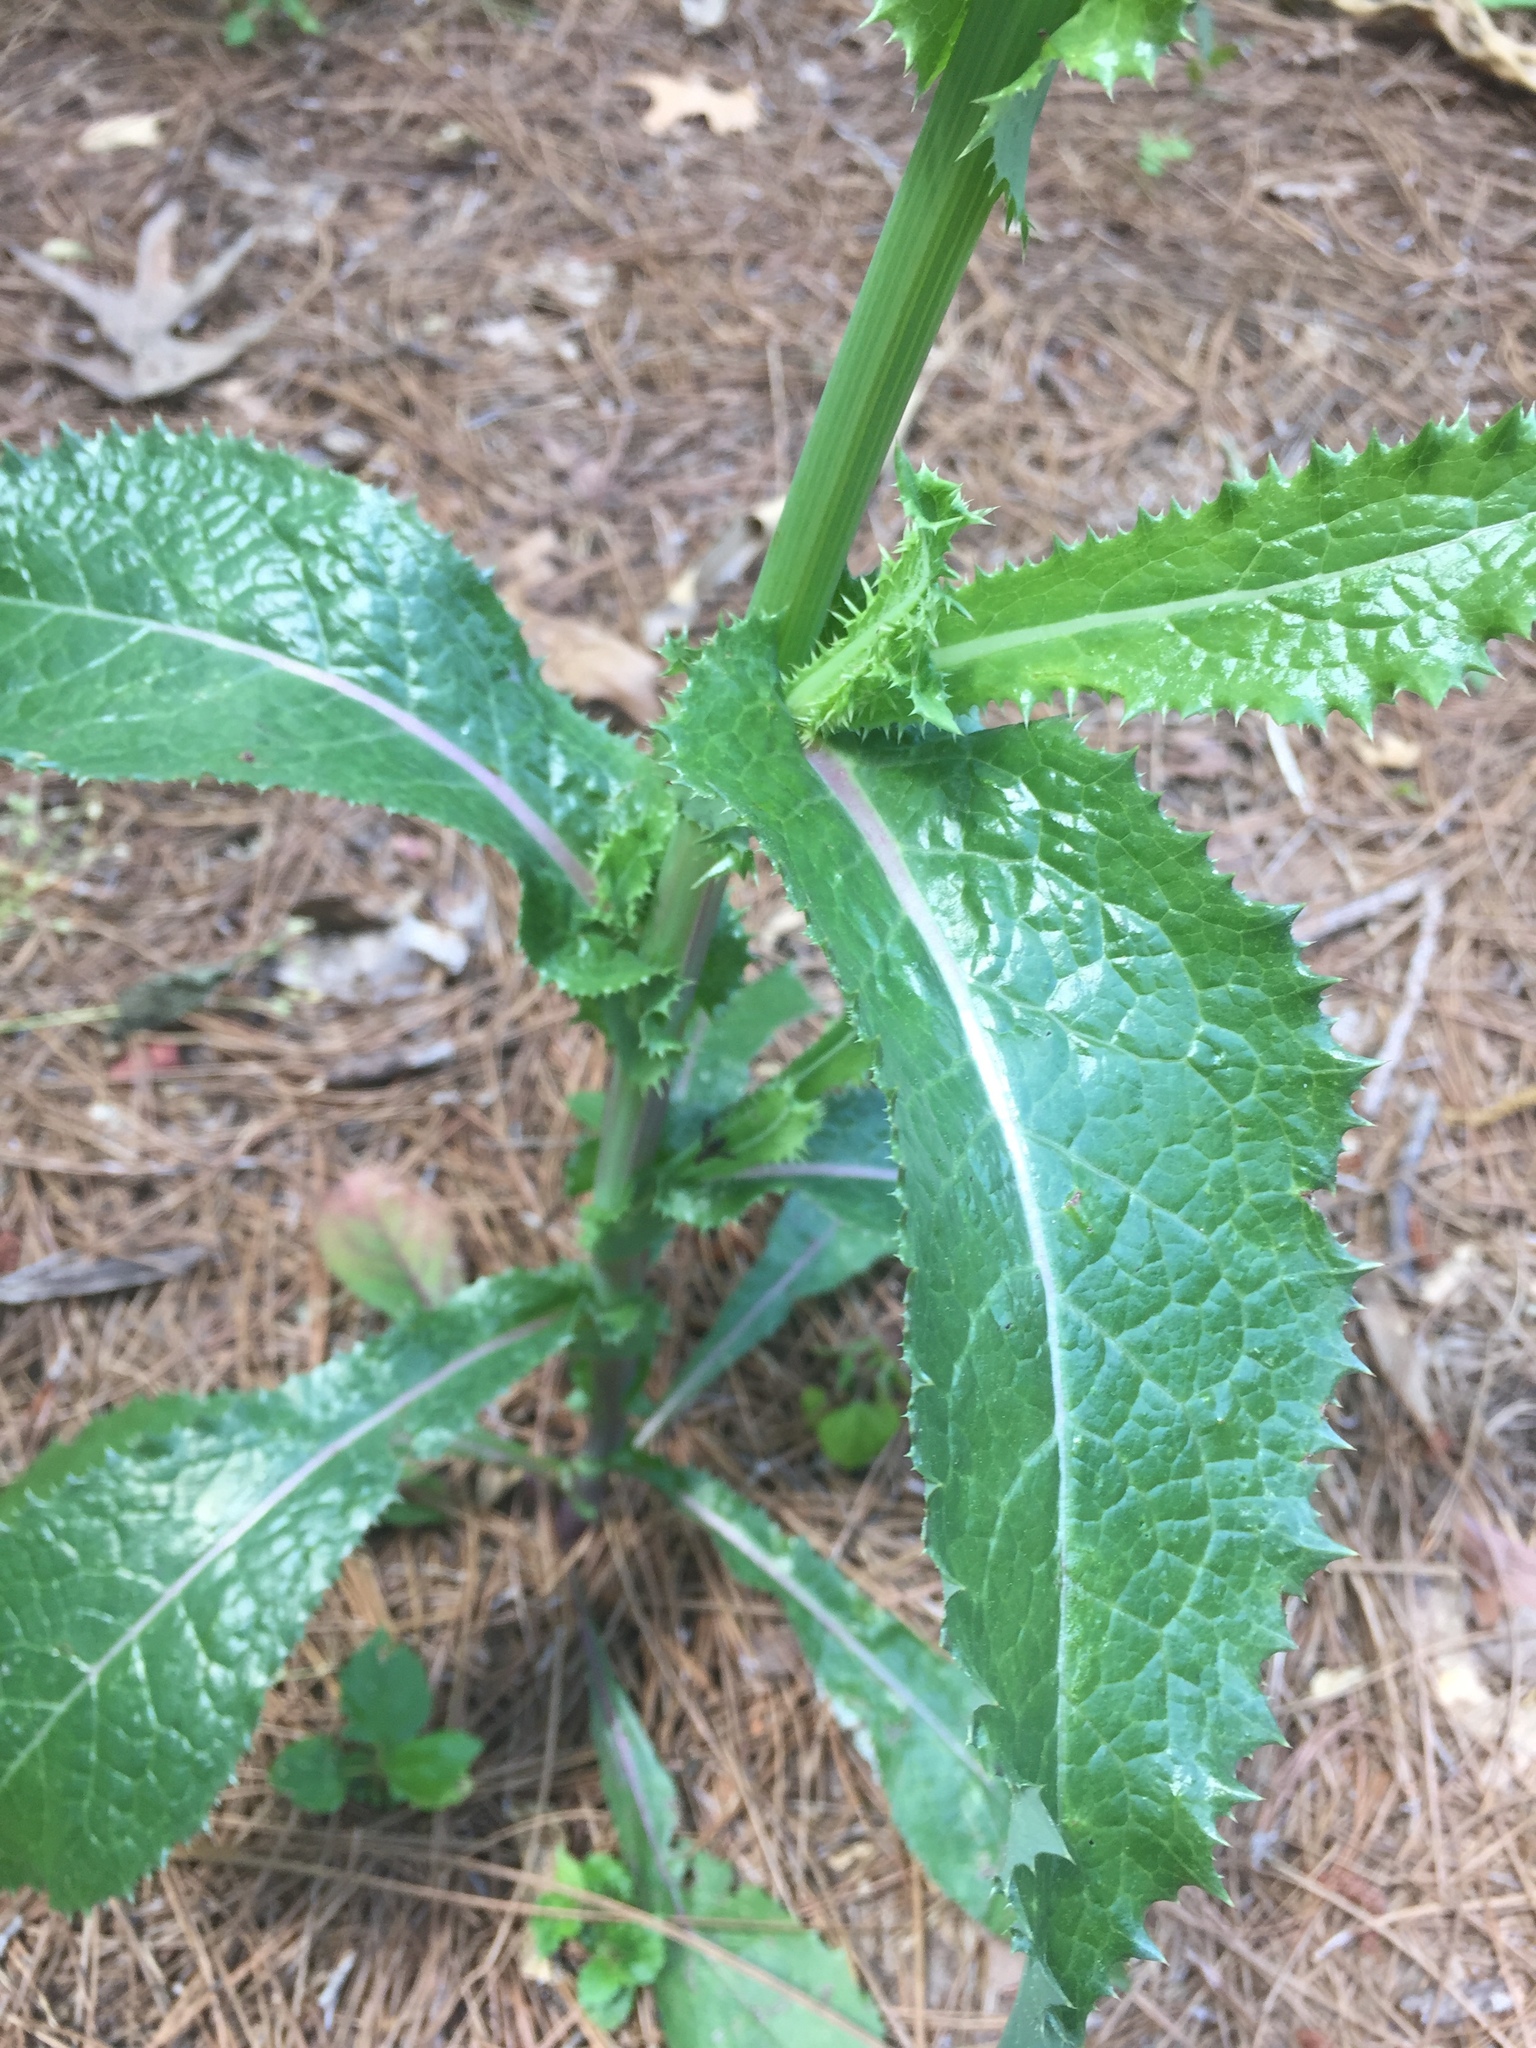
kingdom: Plantae
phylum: Tracheophyta
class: Magnoliopsida
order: Asterales
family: Asteraceae
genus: Sonchus
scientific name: Sonchus asper
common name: Prickly sow-thistle
